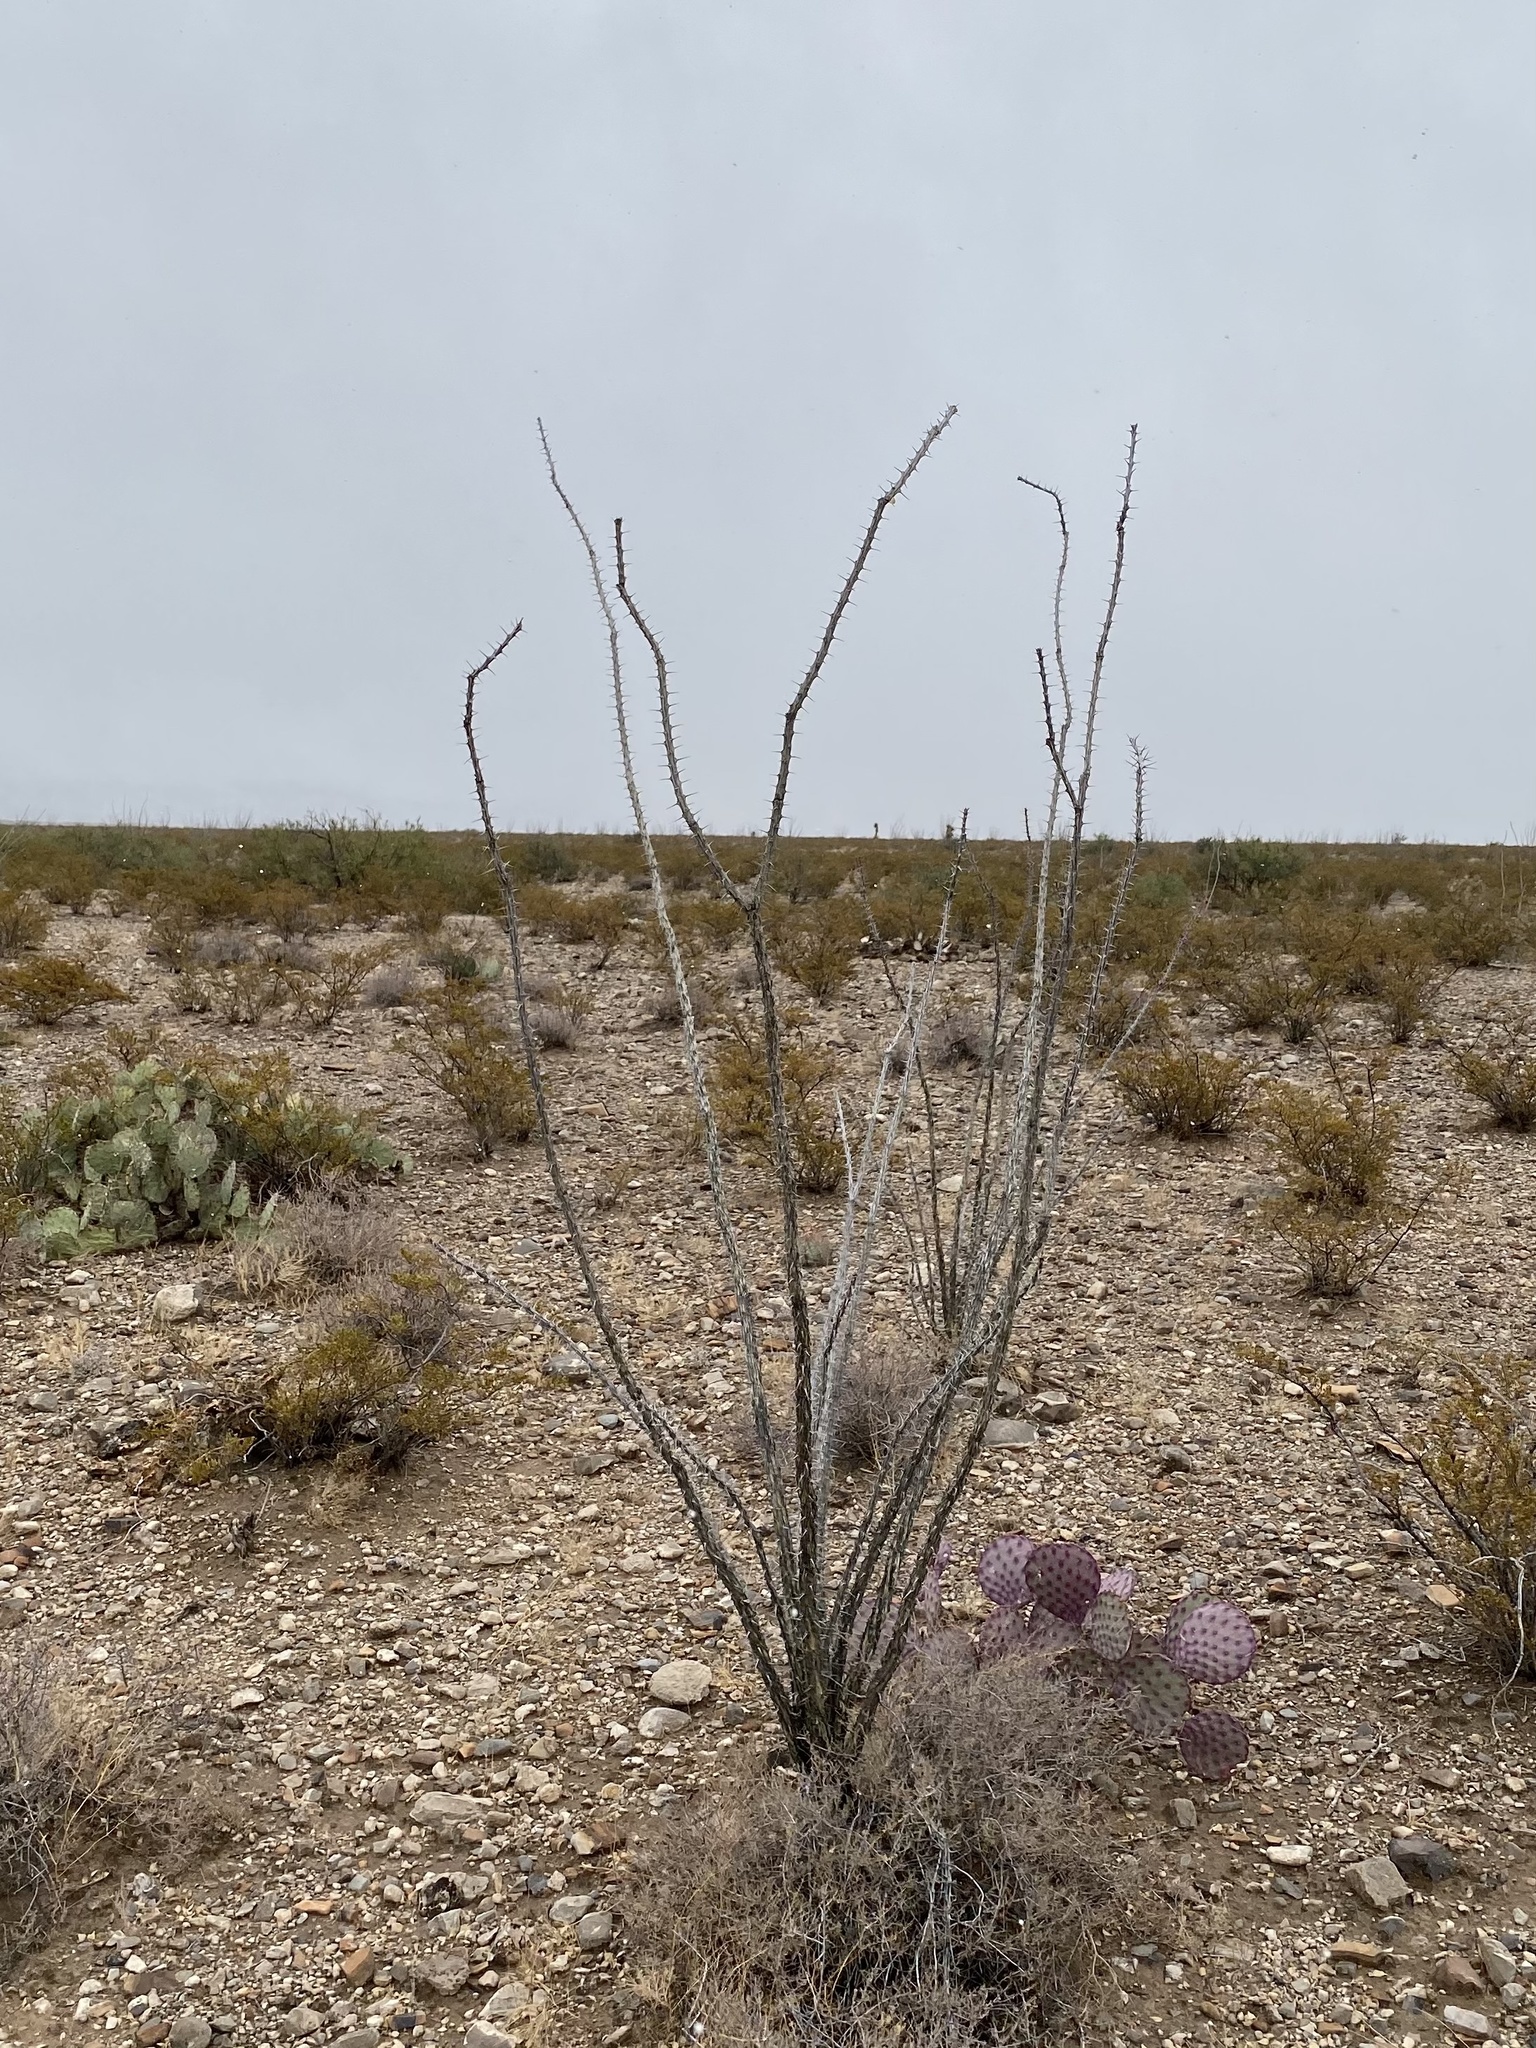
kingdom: Plantae
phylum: Tracheophyta
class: Magnoliopsida
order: Ericales
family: Fouquieriaceae
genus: Fouquieria
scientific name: Fouquieria splendens
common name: Vine-cactus
